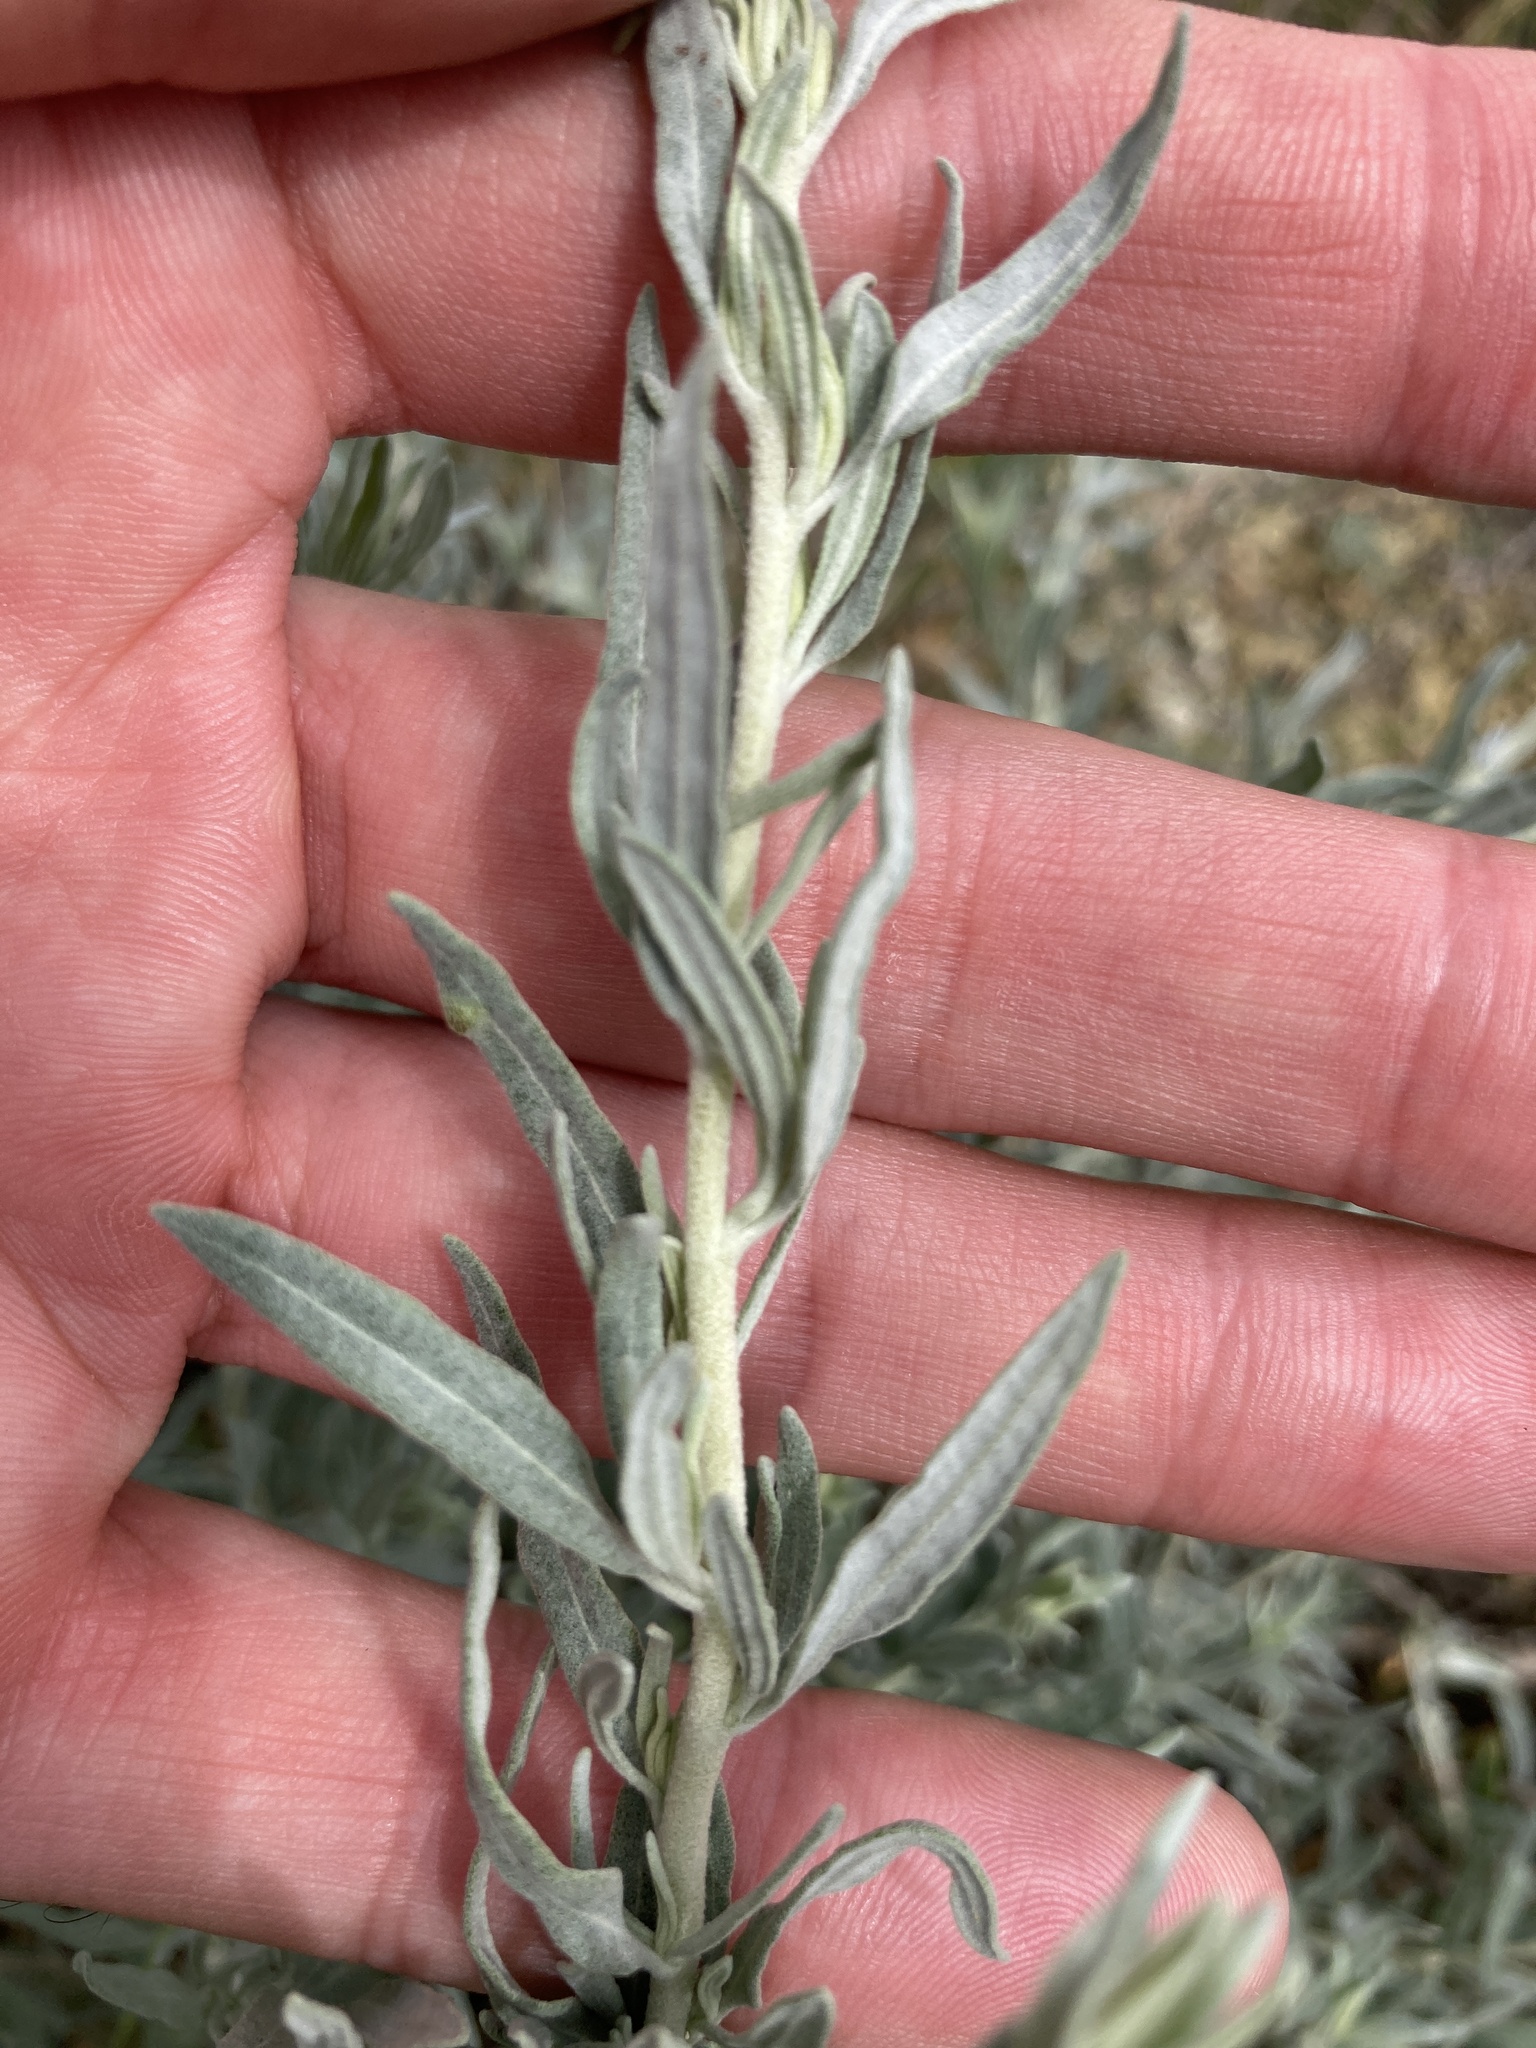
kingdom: Plantae
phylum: Tracheophyta
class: Magnoliopsida
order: Caryophyllales
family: Amaranthaceae
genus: Krascheninnikovia
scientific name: Krascheninnikovia ceratoides
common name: Pamirian winterfat
